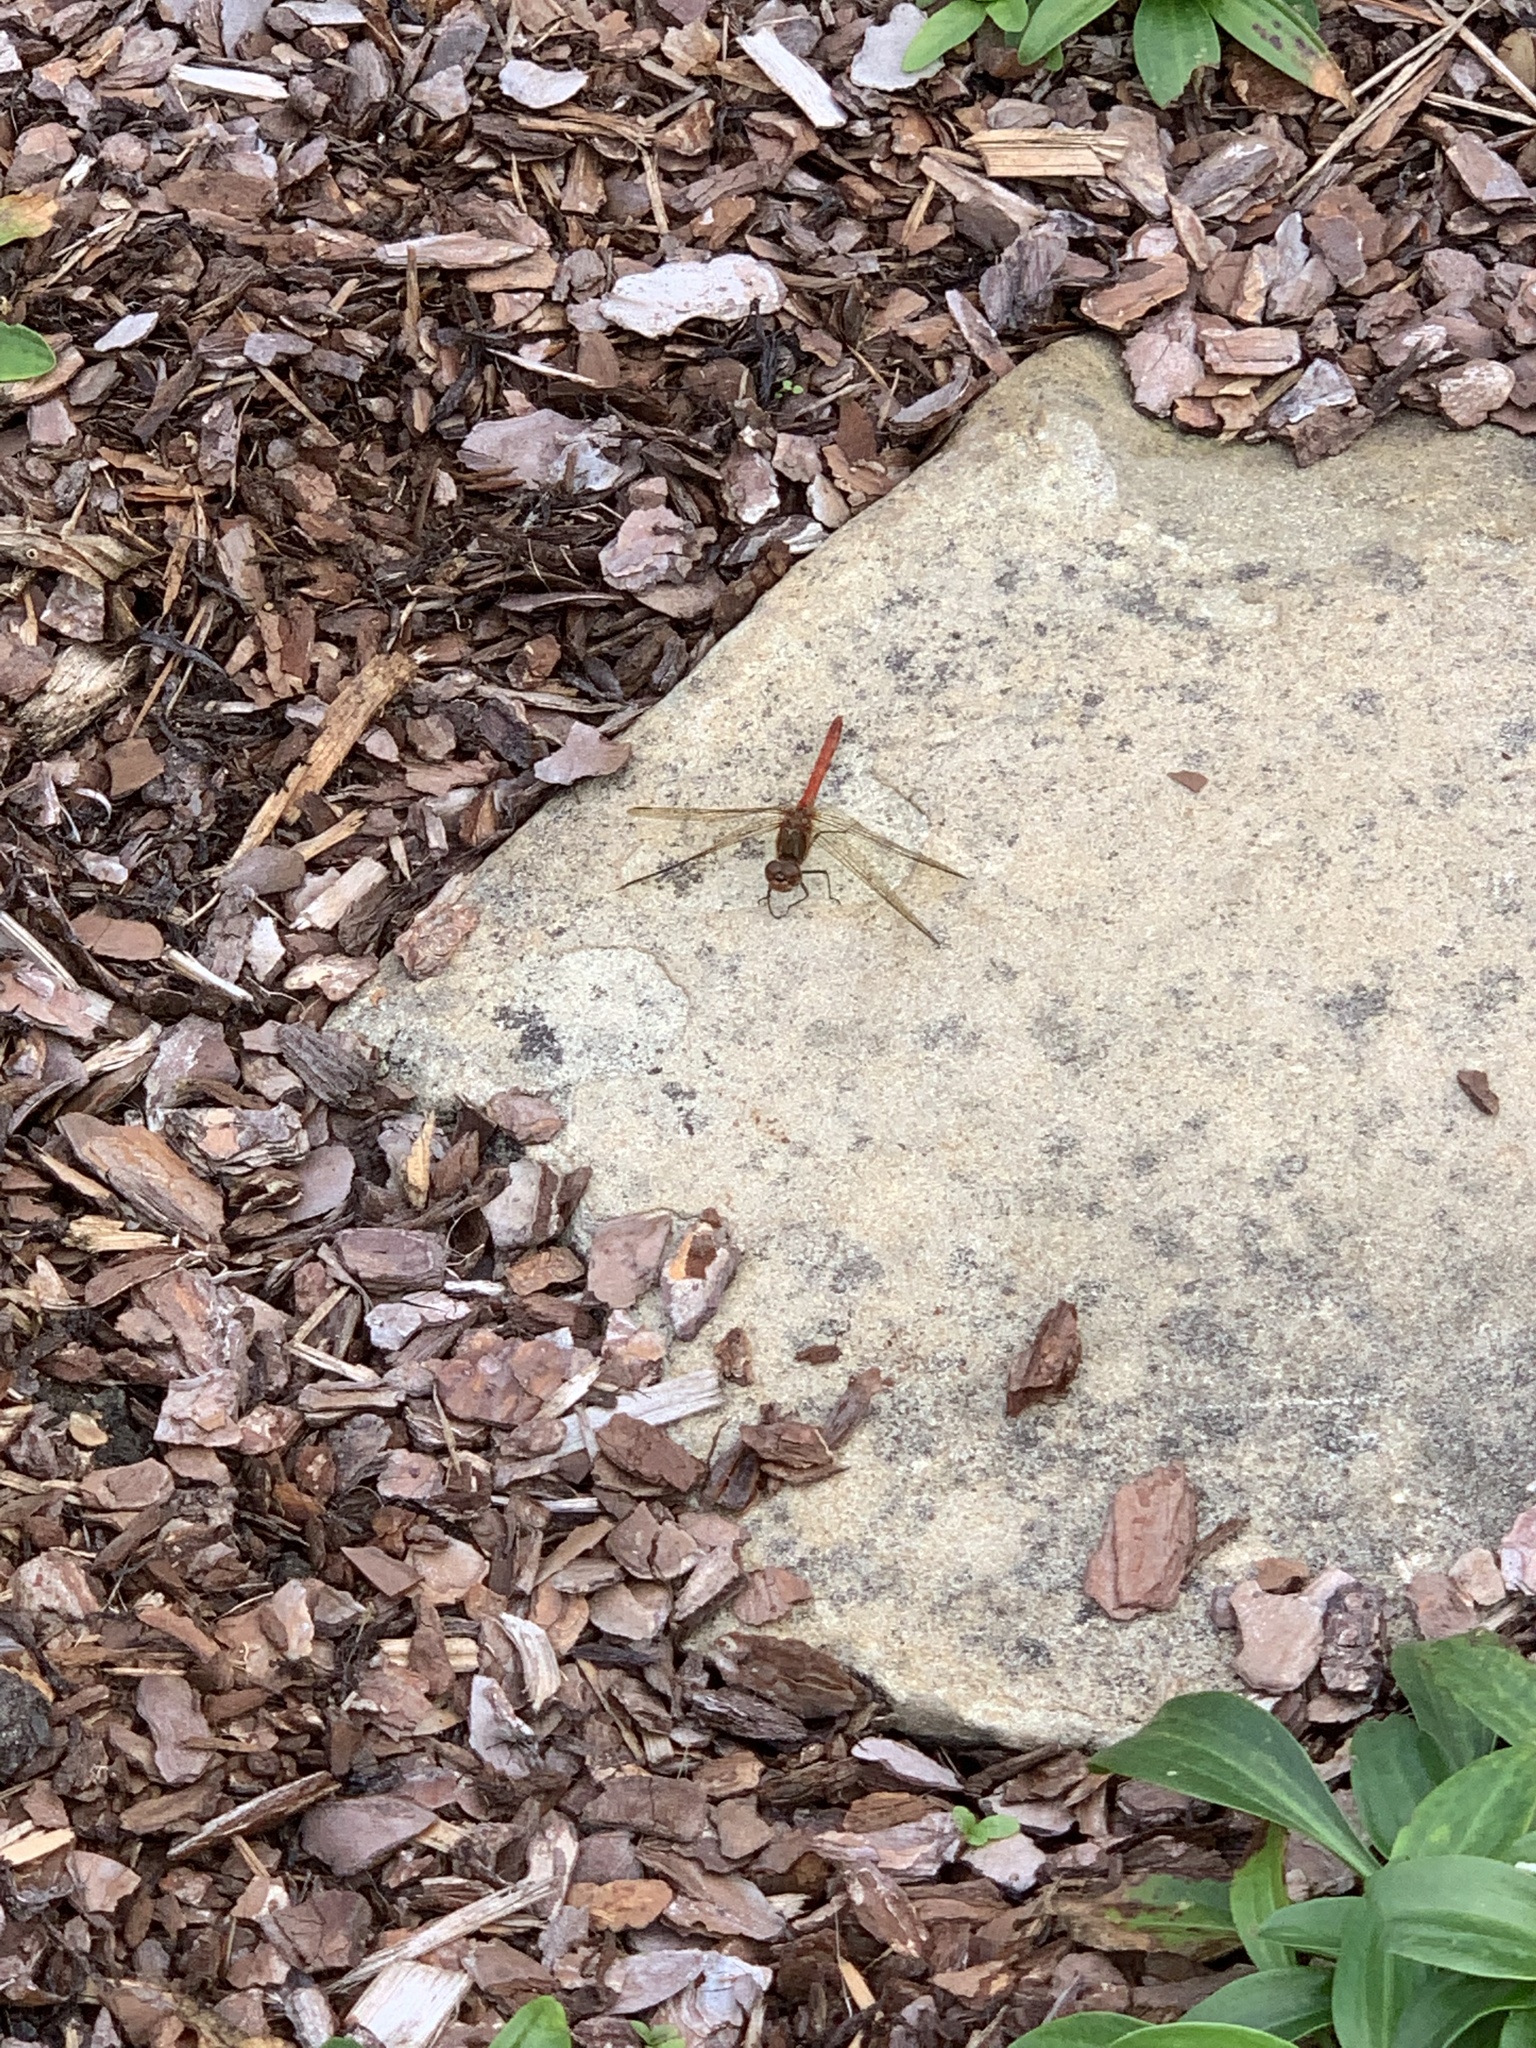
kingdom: Animalia
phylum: Arthropoda
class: Insecta
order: Odonata
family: Libellulidae
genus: Sympetrum
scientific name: Sympetrum striolatum
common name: Common darter
